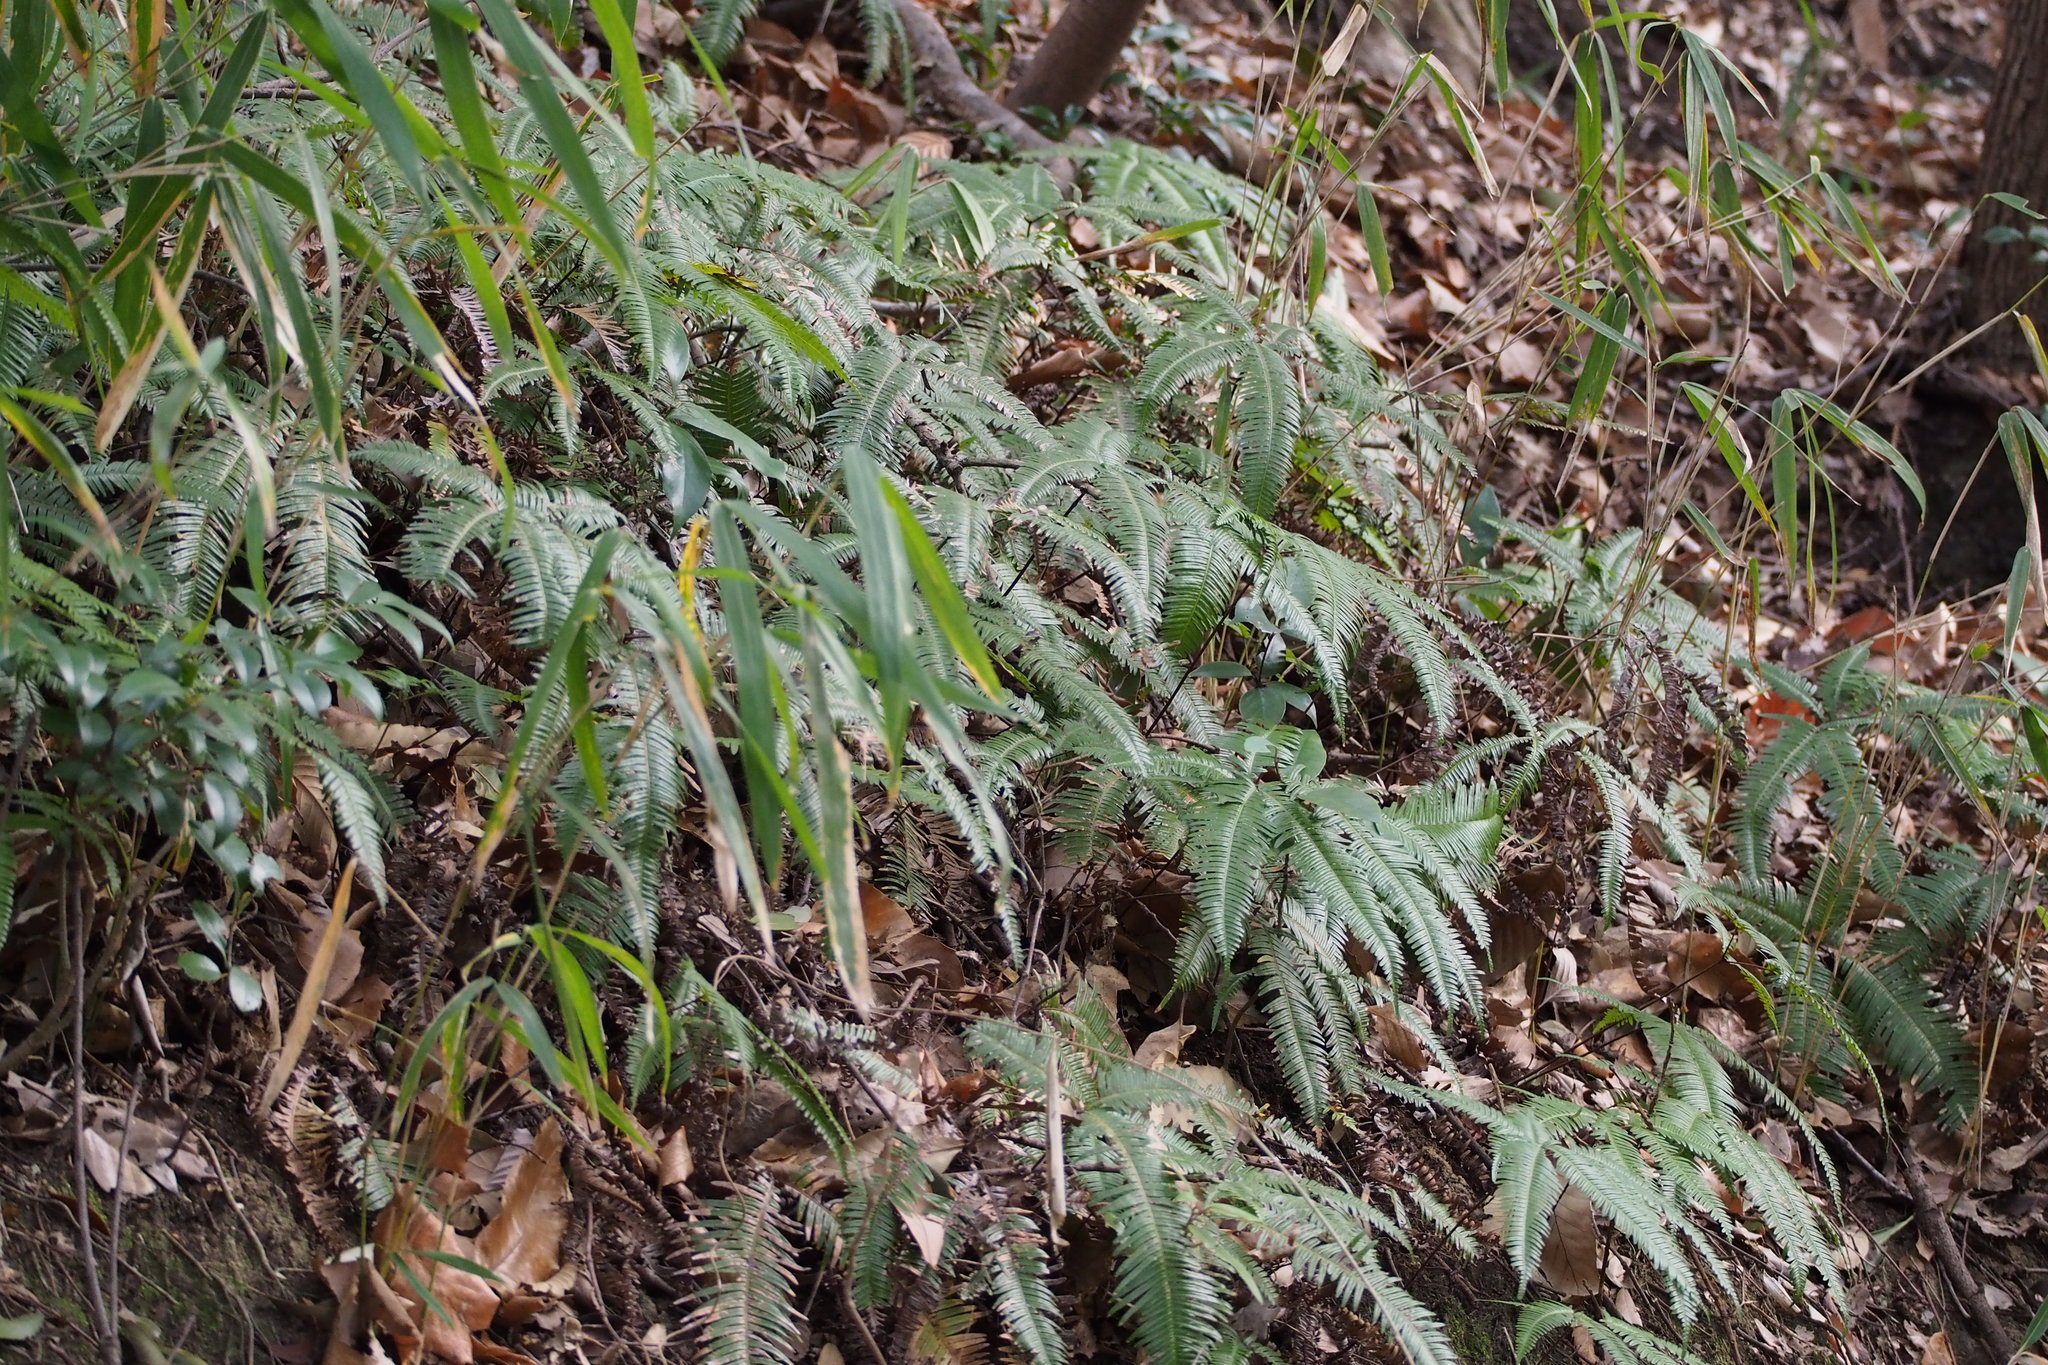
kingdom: Plantae
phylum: Tracheophyta
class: Polypodiopsida
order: Gleicheniales
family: Gleicheniaceae
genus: Dicranopteris
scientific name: Dicranopteris linearis
